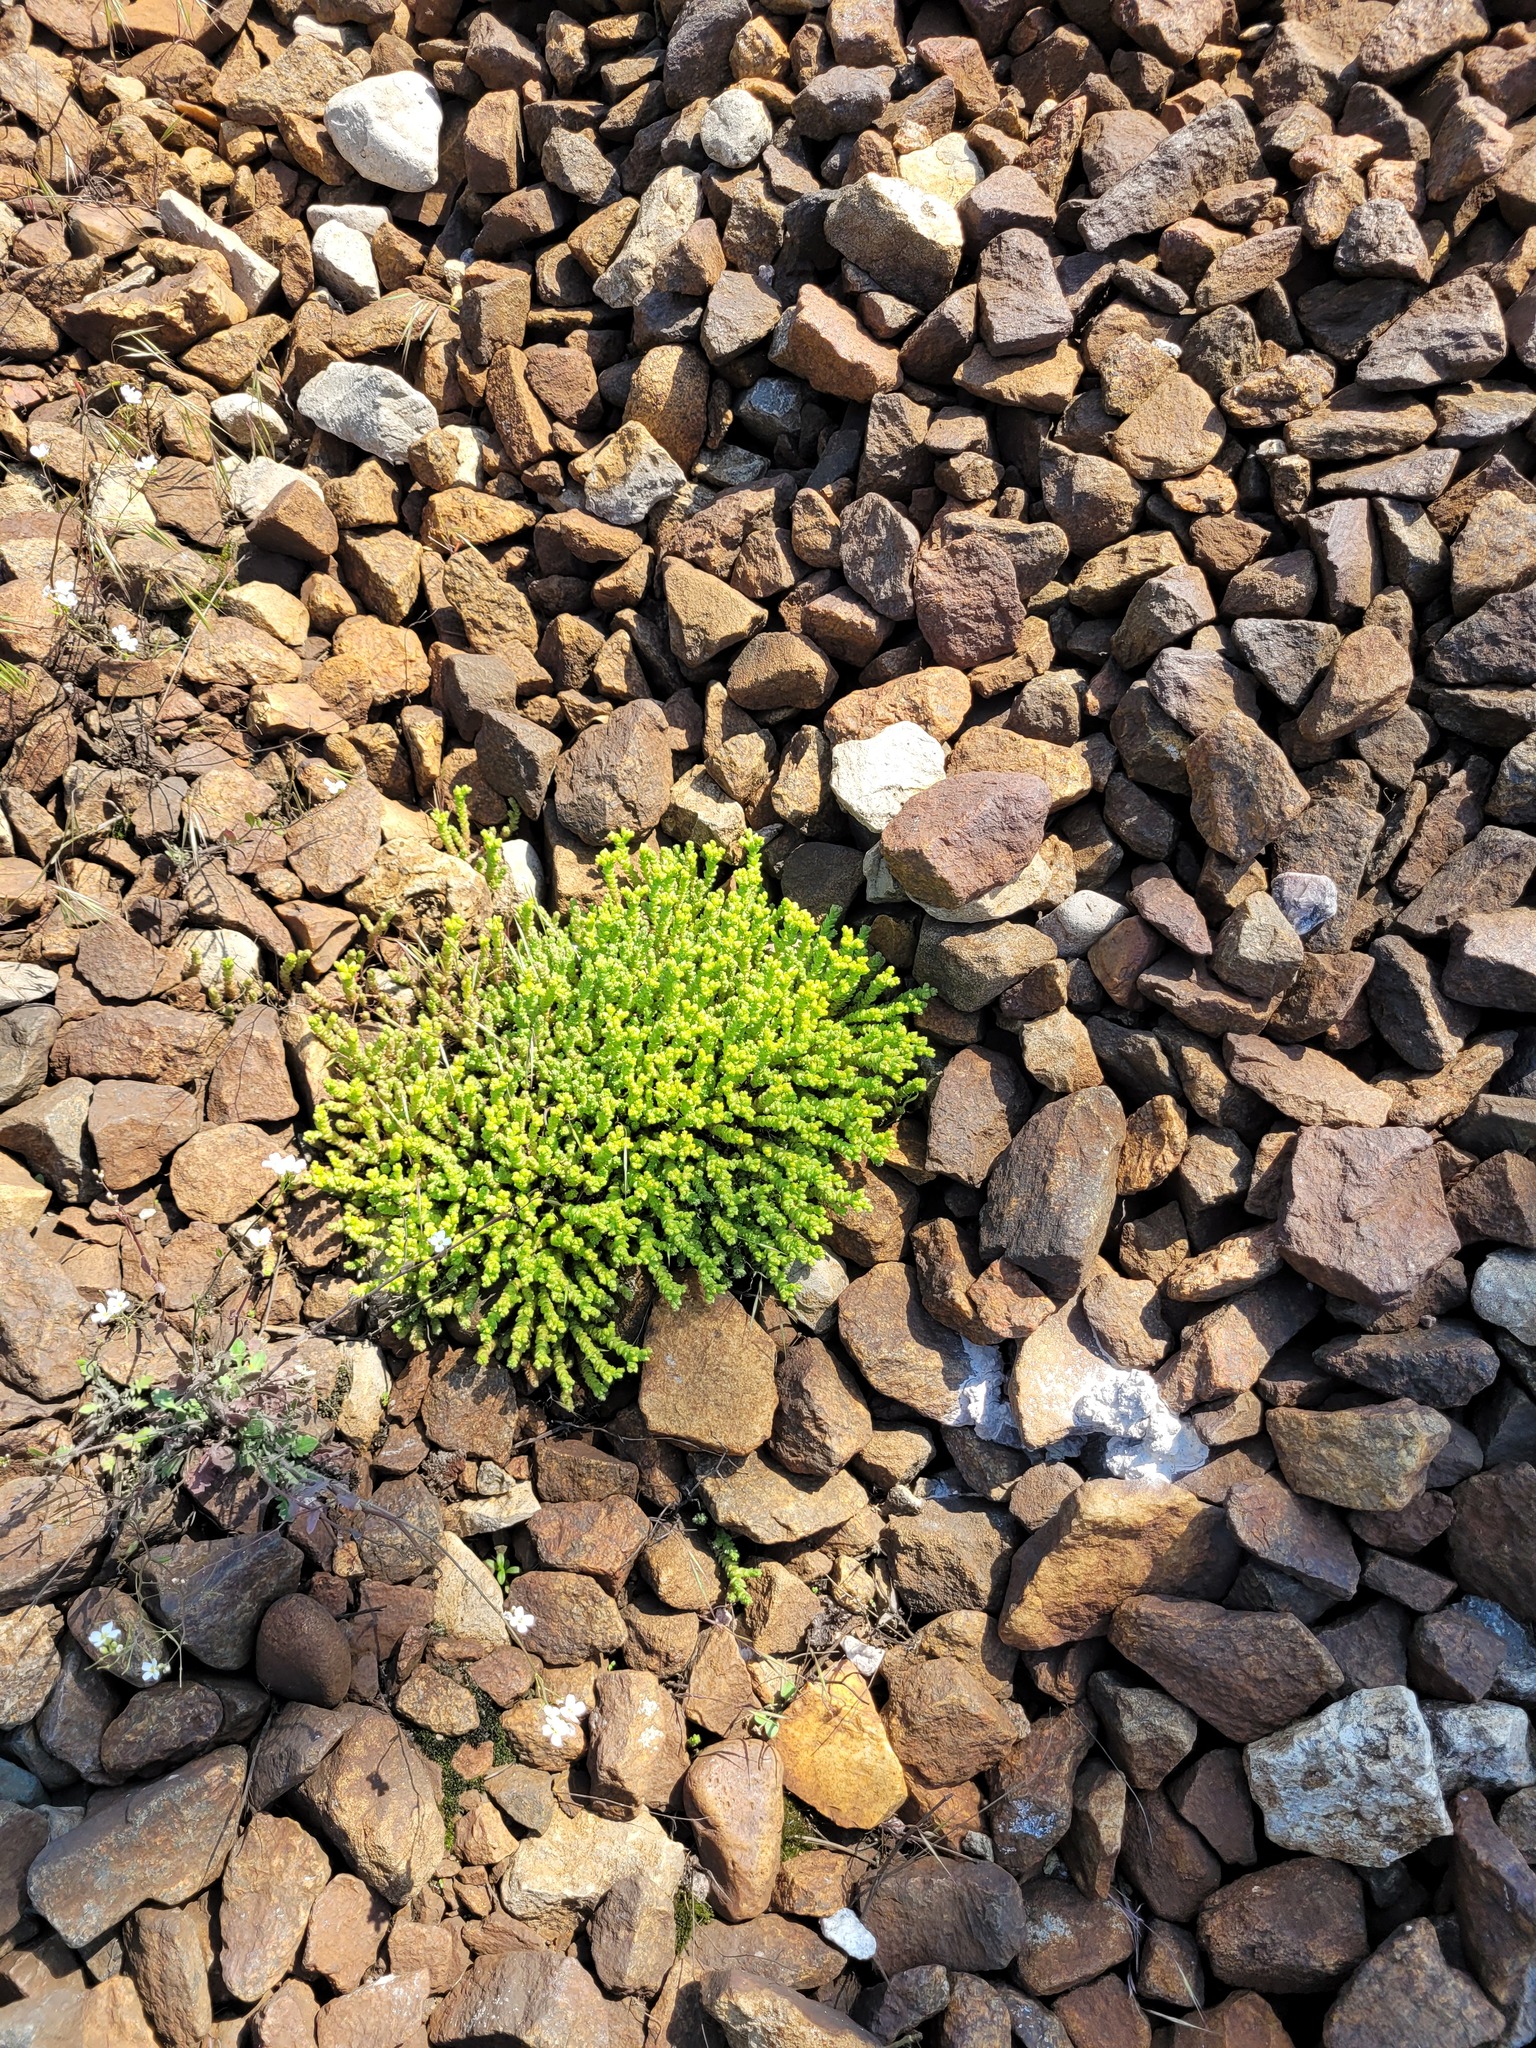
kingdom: Plantae
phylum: Tracheophyta
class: Magnoliopsida
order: Saxifragales
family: Crassulaceae
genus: Sedum
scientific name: Sedum acre
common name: Biting stonecrop
